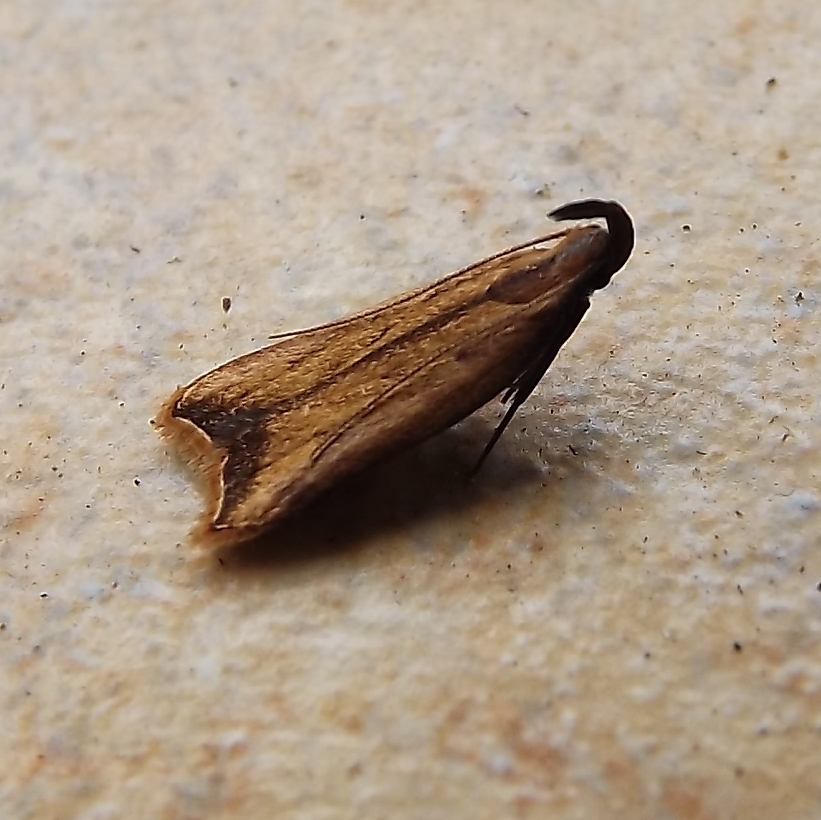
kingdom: Animalia
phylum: Arthropoda
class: Insecta
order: Lepidoptera
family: Gelechiidae
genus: Dichomeris
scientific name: Dichomeris heriguronis
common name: Black-edged dichomeris moth
